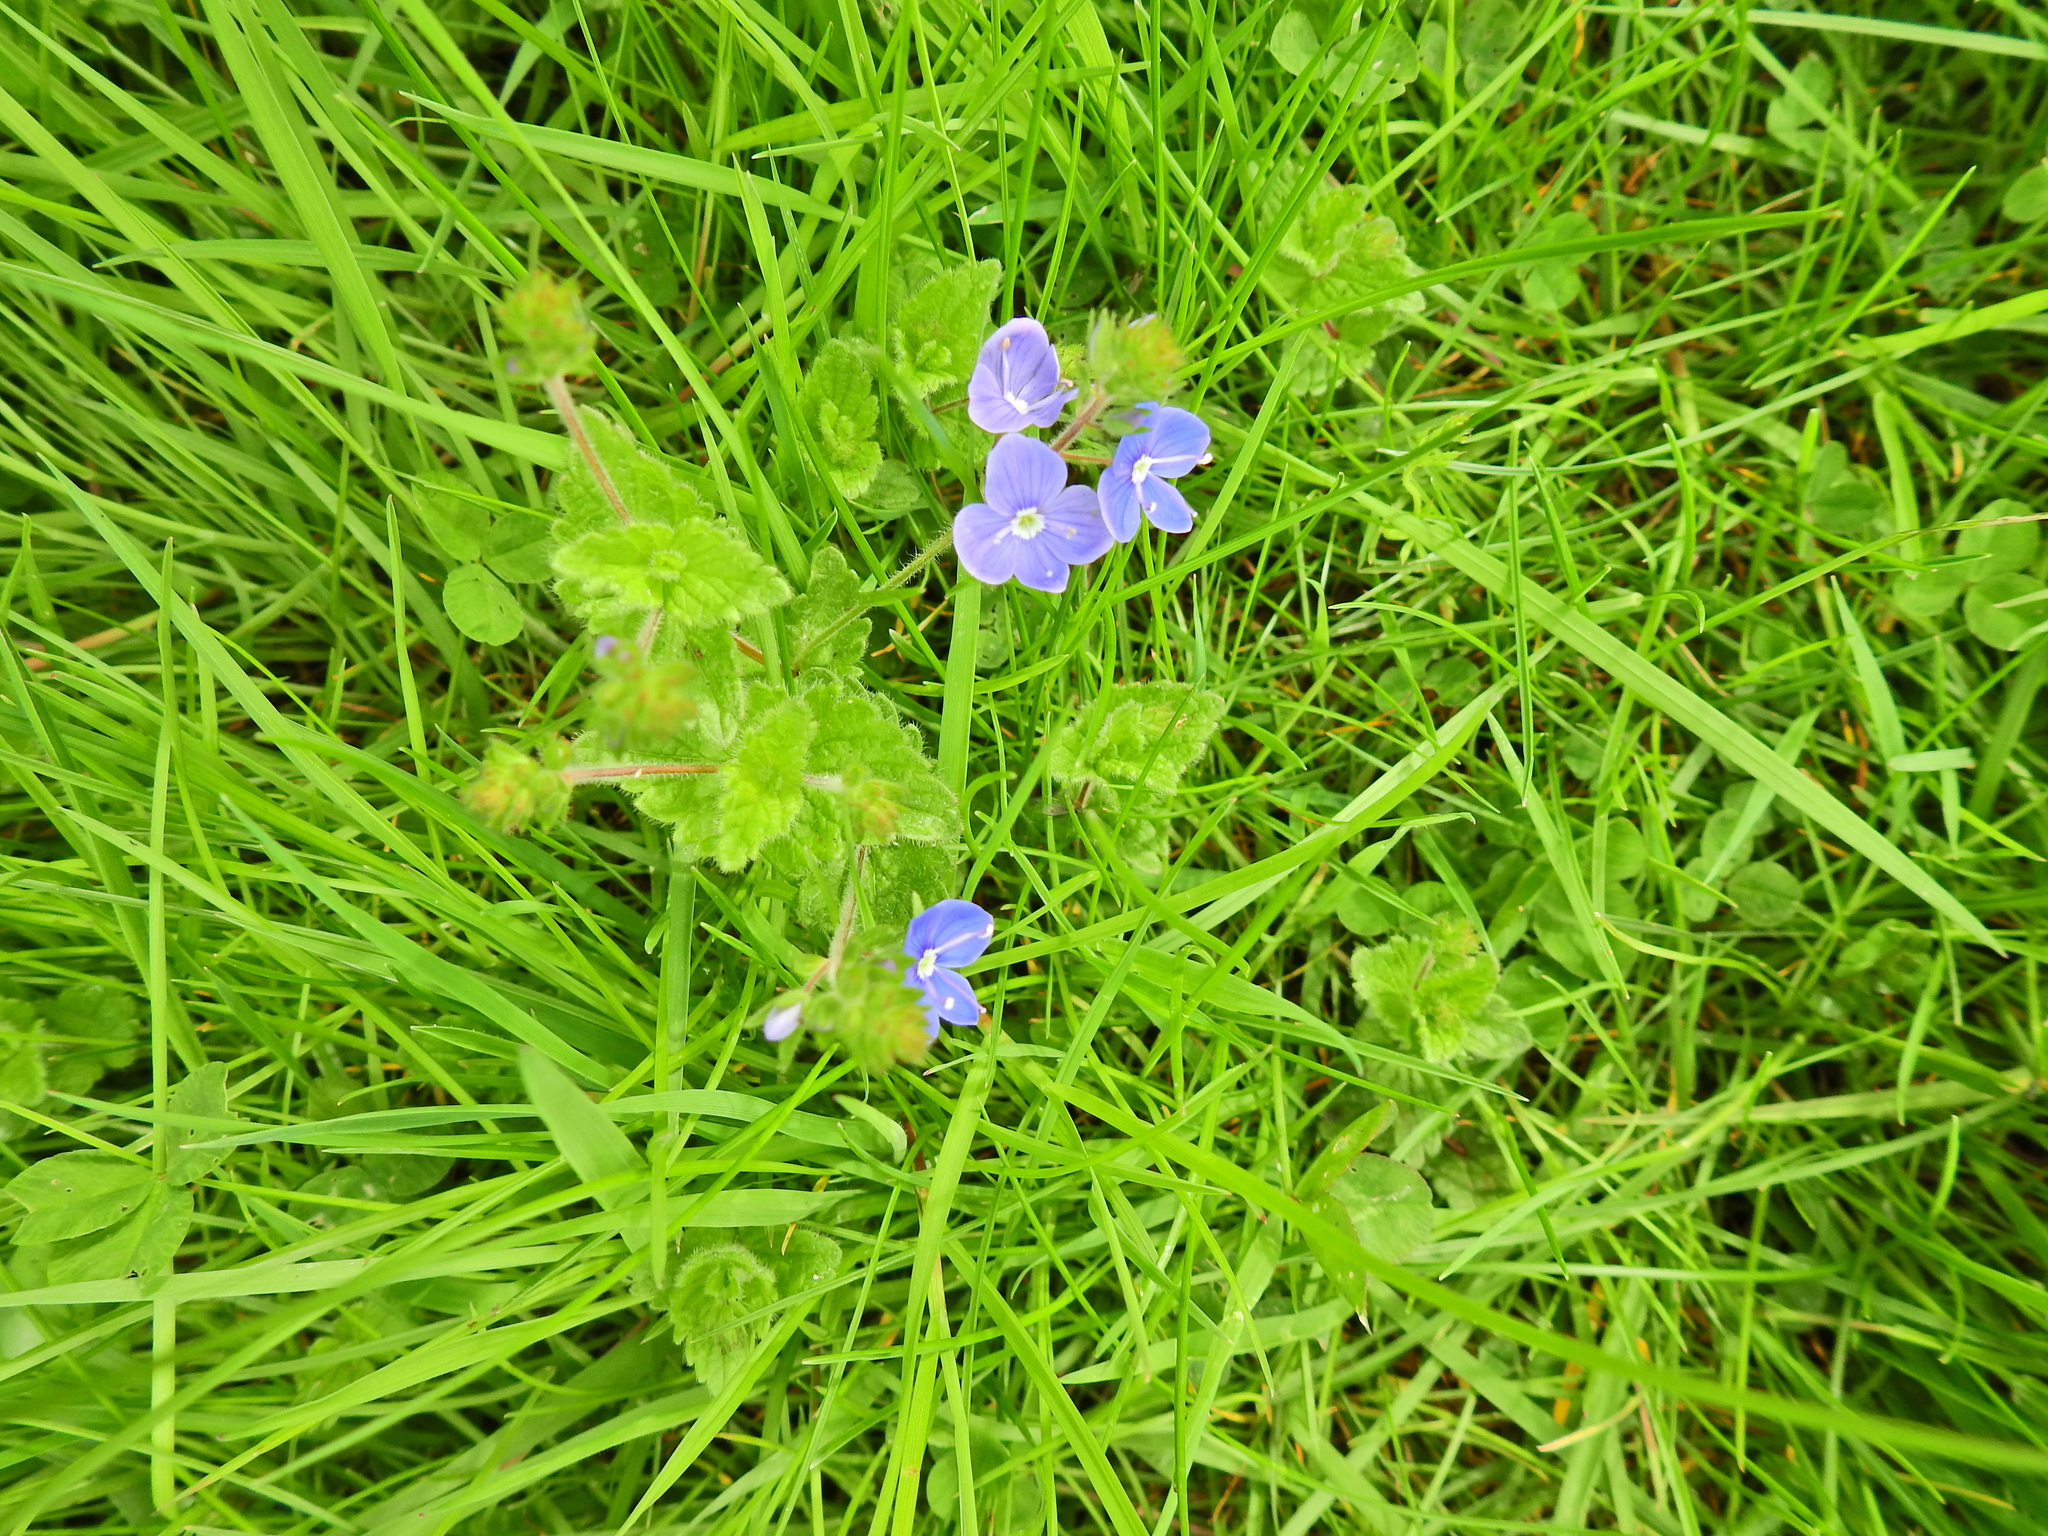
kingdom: Plantae
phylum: Tracheophyta
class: Magnoliopsida
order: Lamiales
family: Plantaginaceae
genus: Veronica
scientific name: Veronica chamaedrys
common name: Germander speedwell
